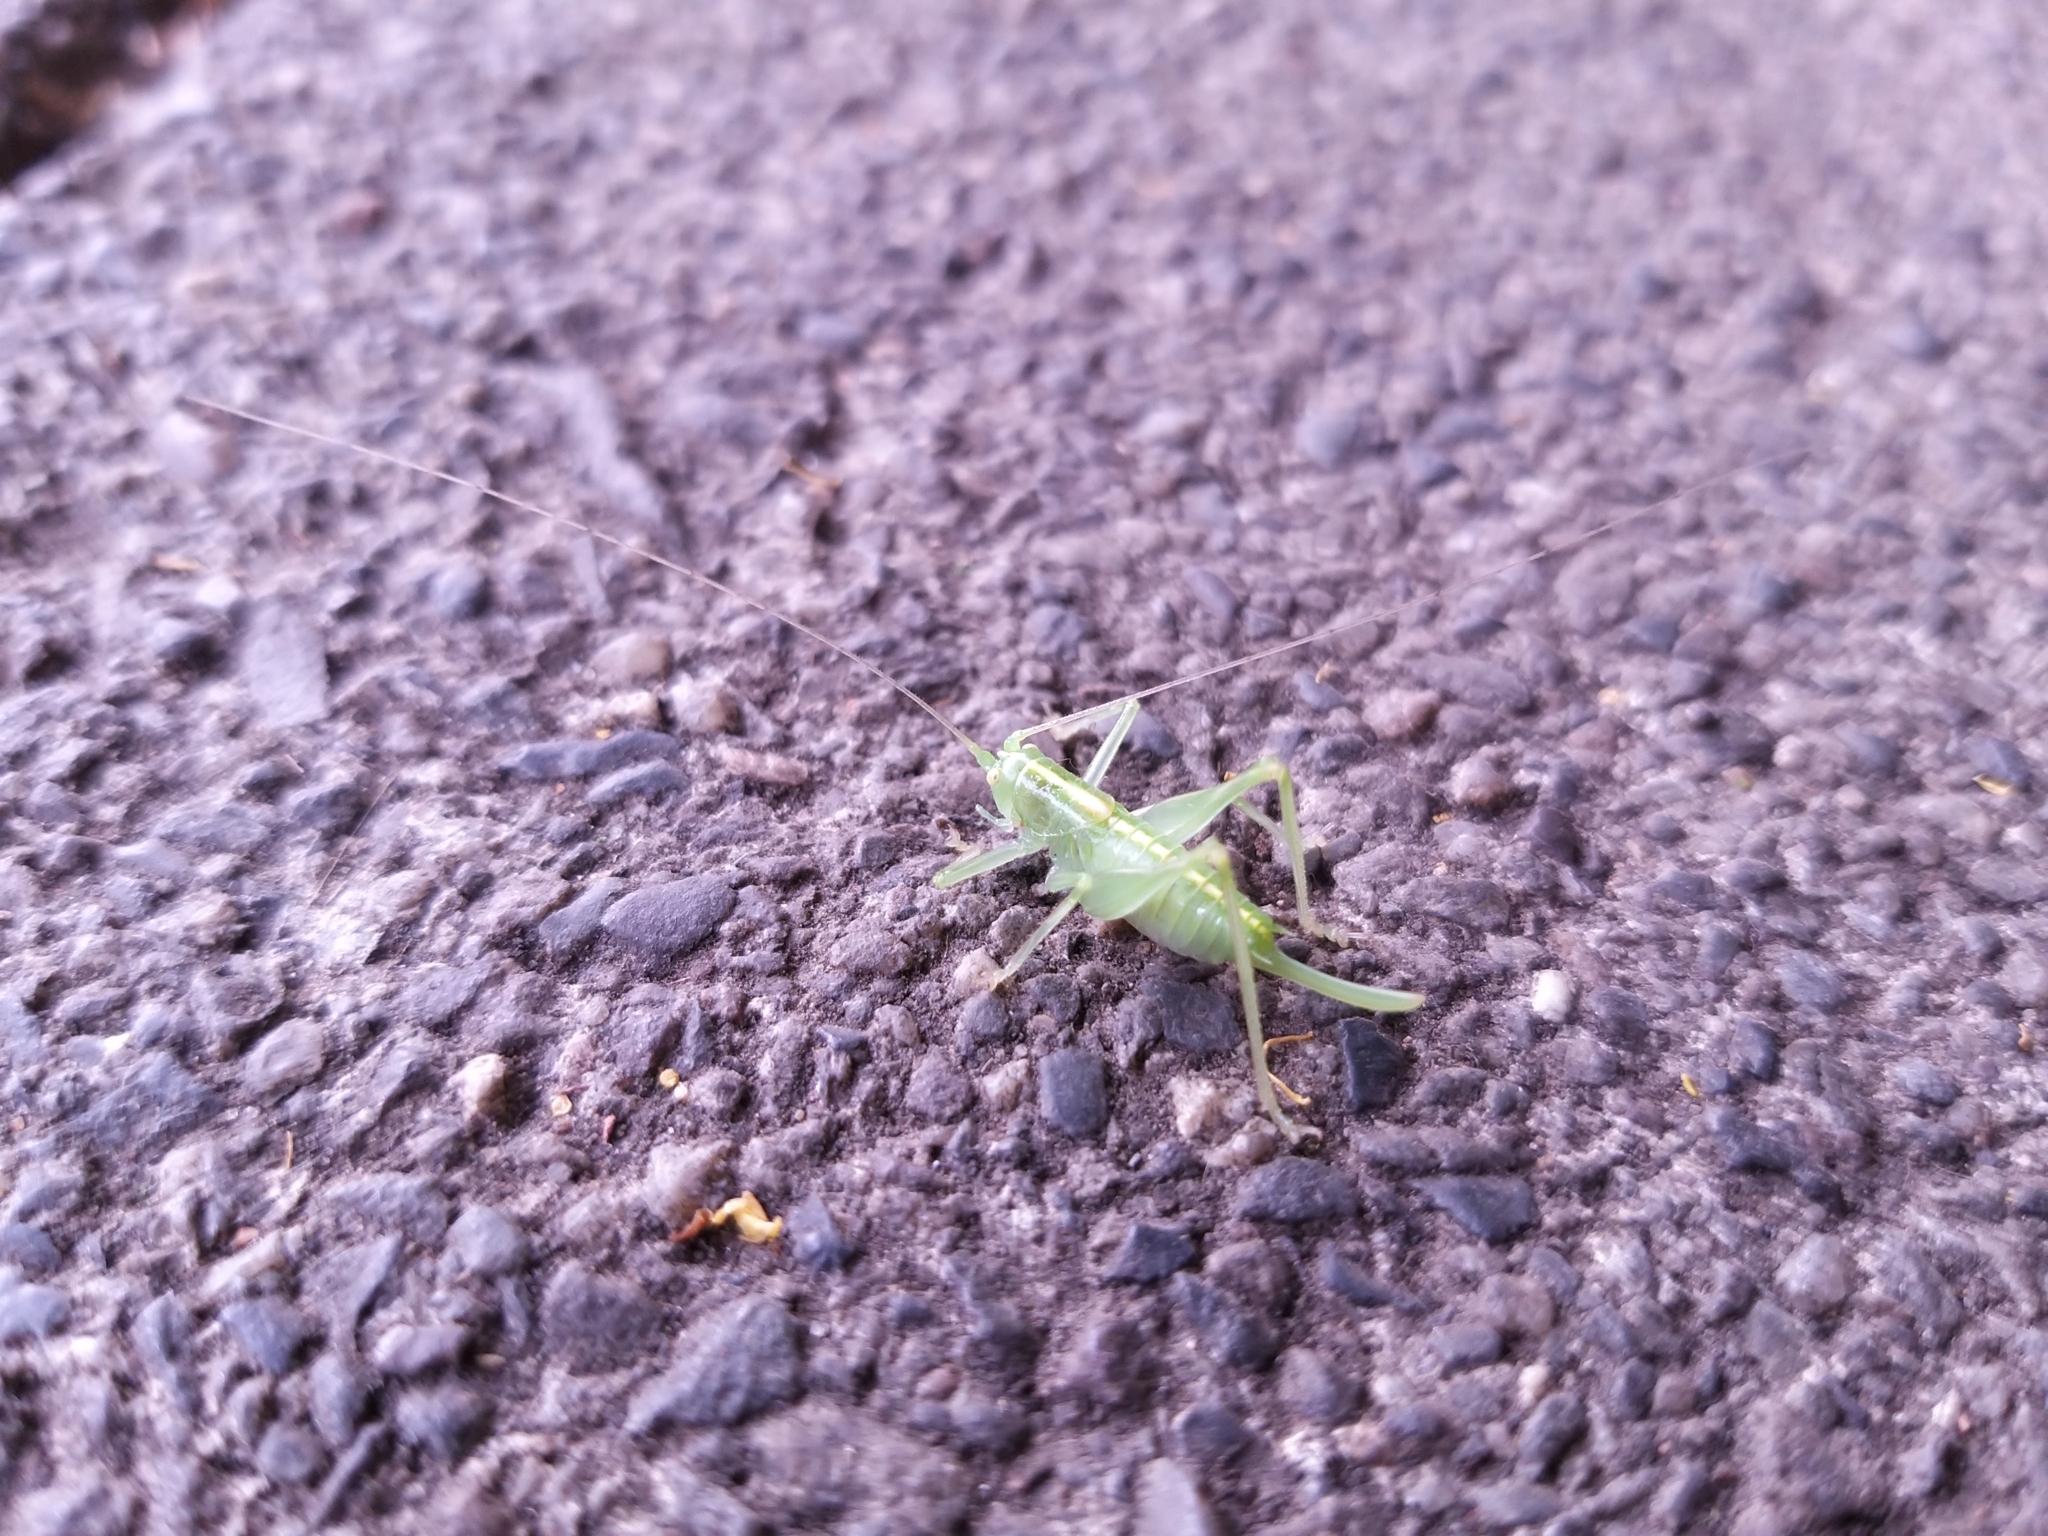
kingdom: Animalia
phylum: Arthropoda
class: Insecta
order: Orthoptera
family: Tettigoniidae
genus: Meconema
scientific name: Meconema meridionale
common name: Southern oak bush-cricket
